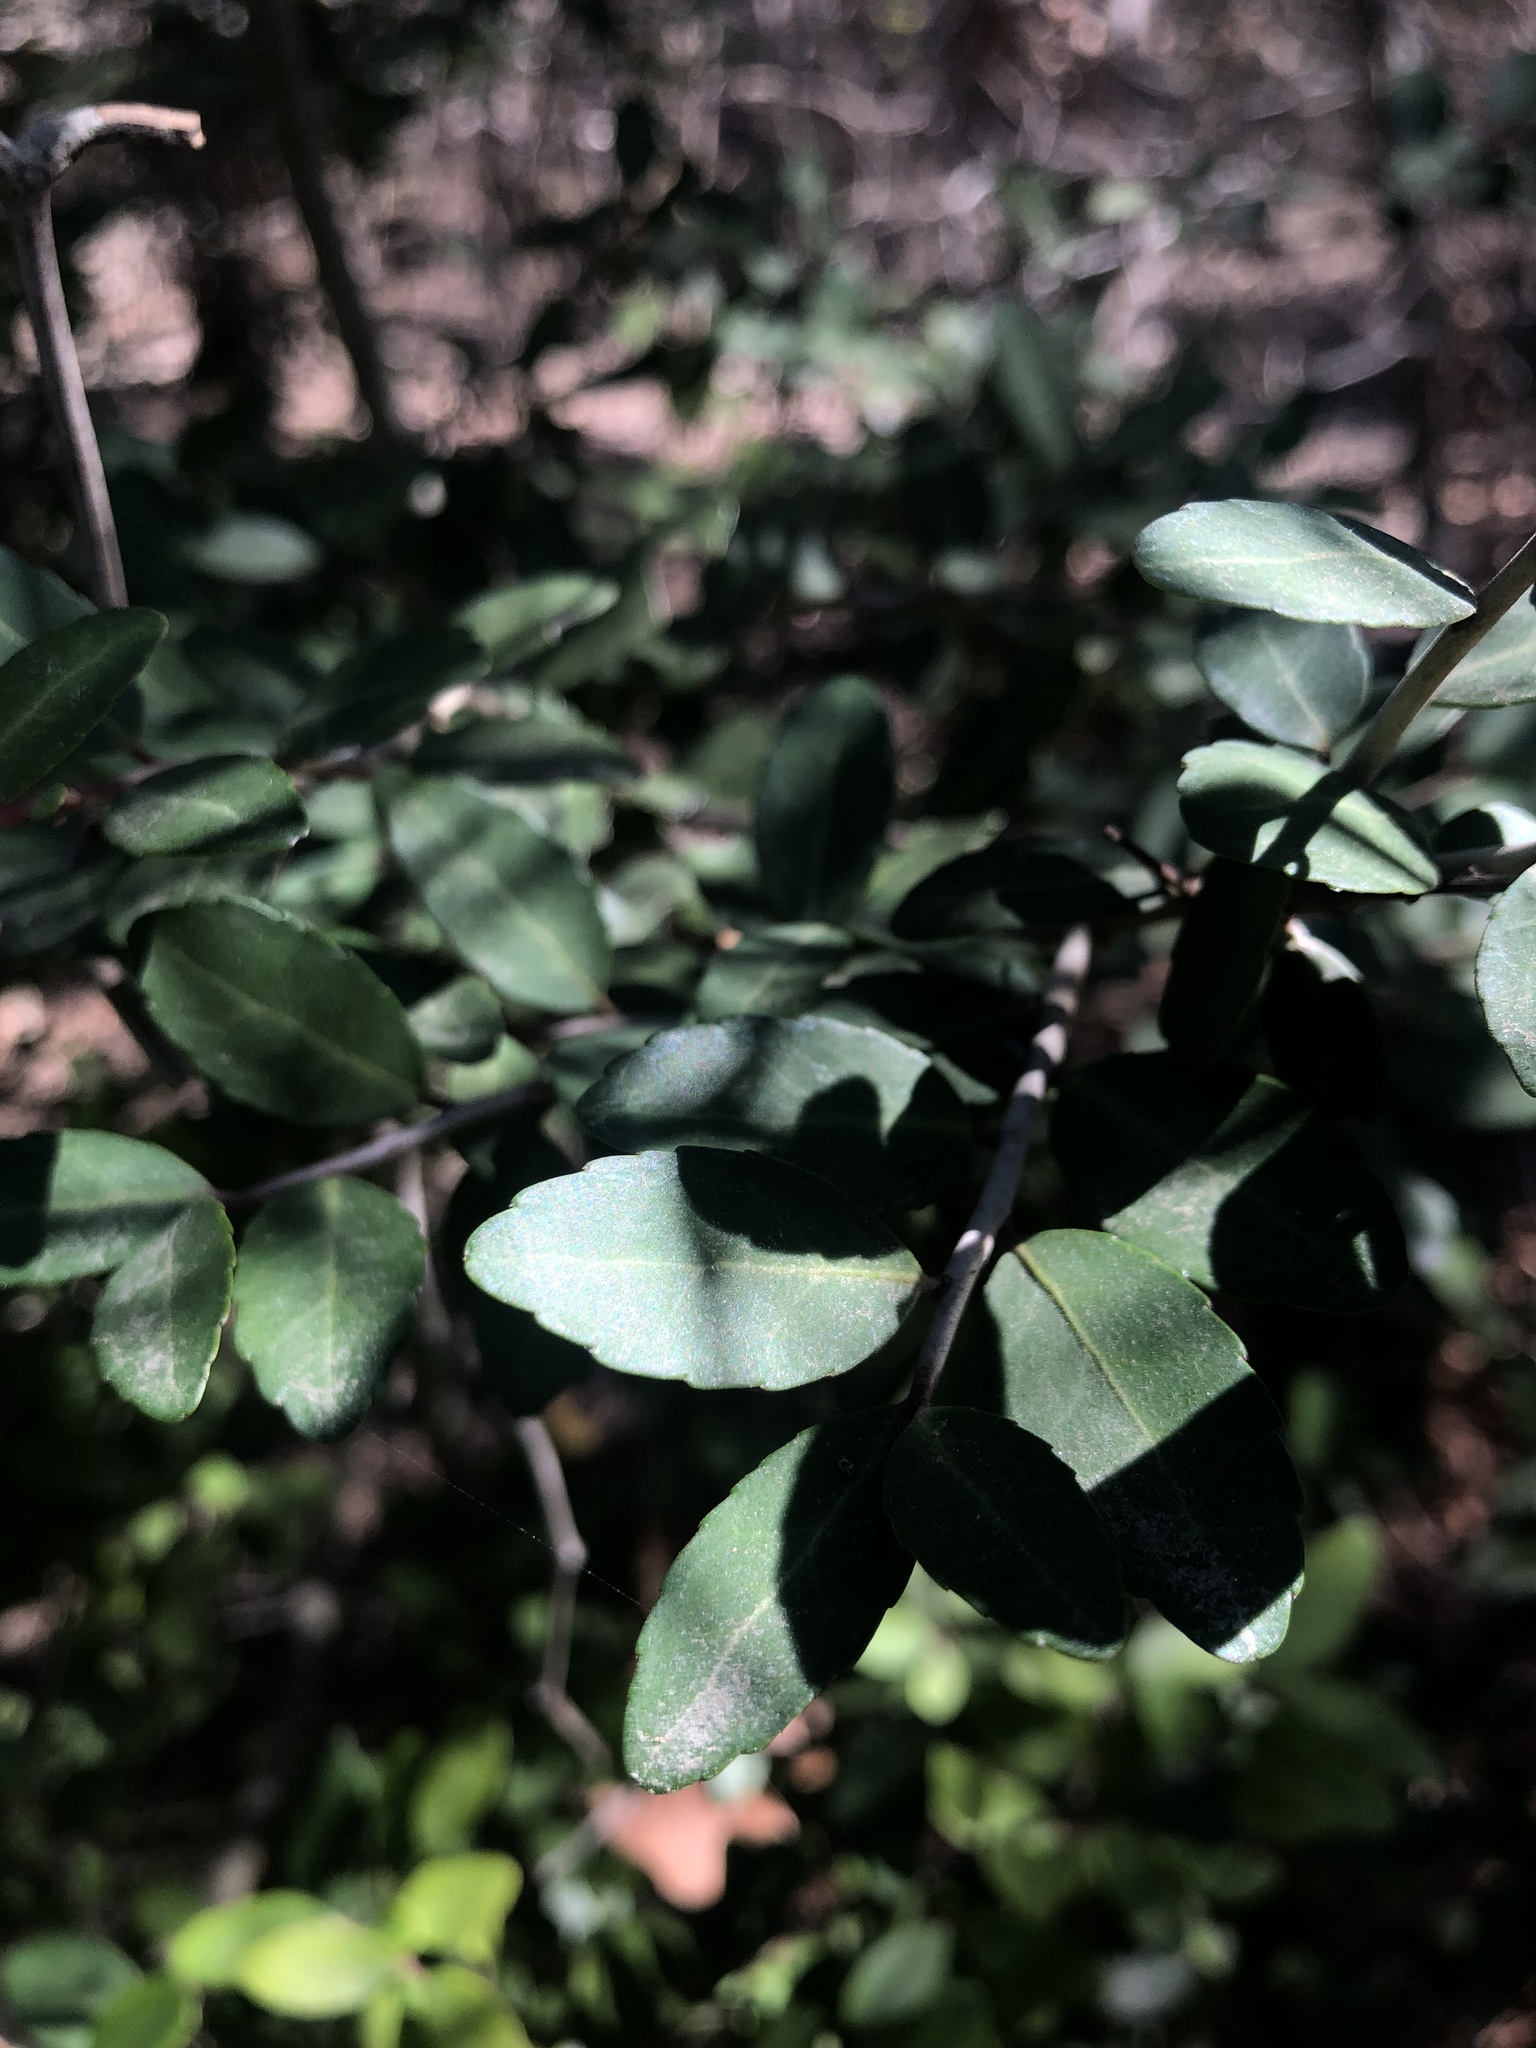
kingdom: Plantae
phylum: Tracheophyta
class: Magnoliopsida
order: Aquifoliales
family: Aquifoliaceae
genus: Ilex
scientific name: Ilex vomitoria
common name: Yaupon holly
